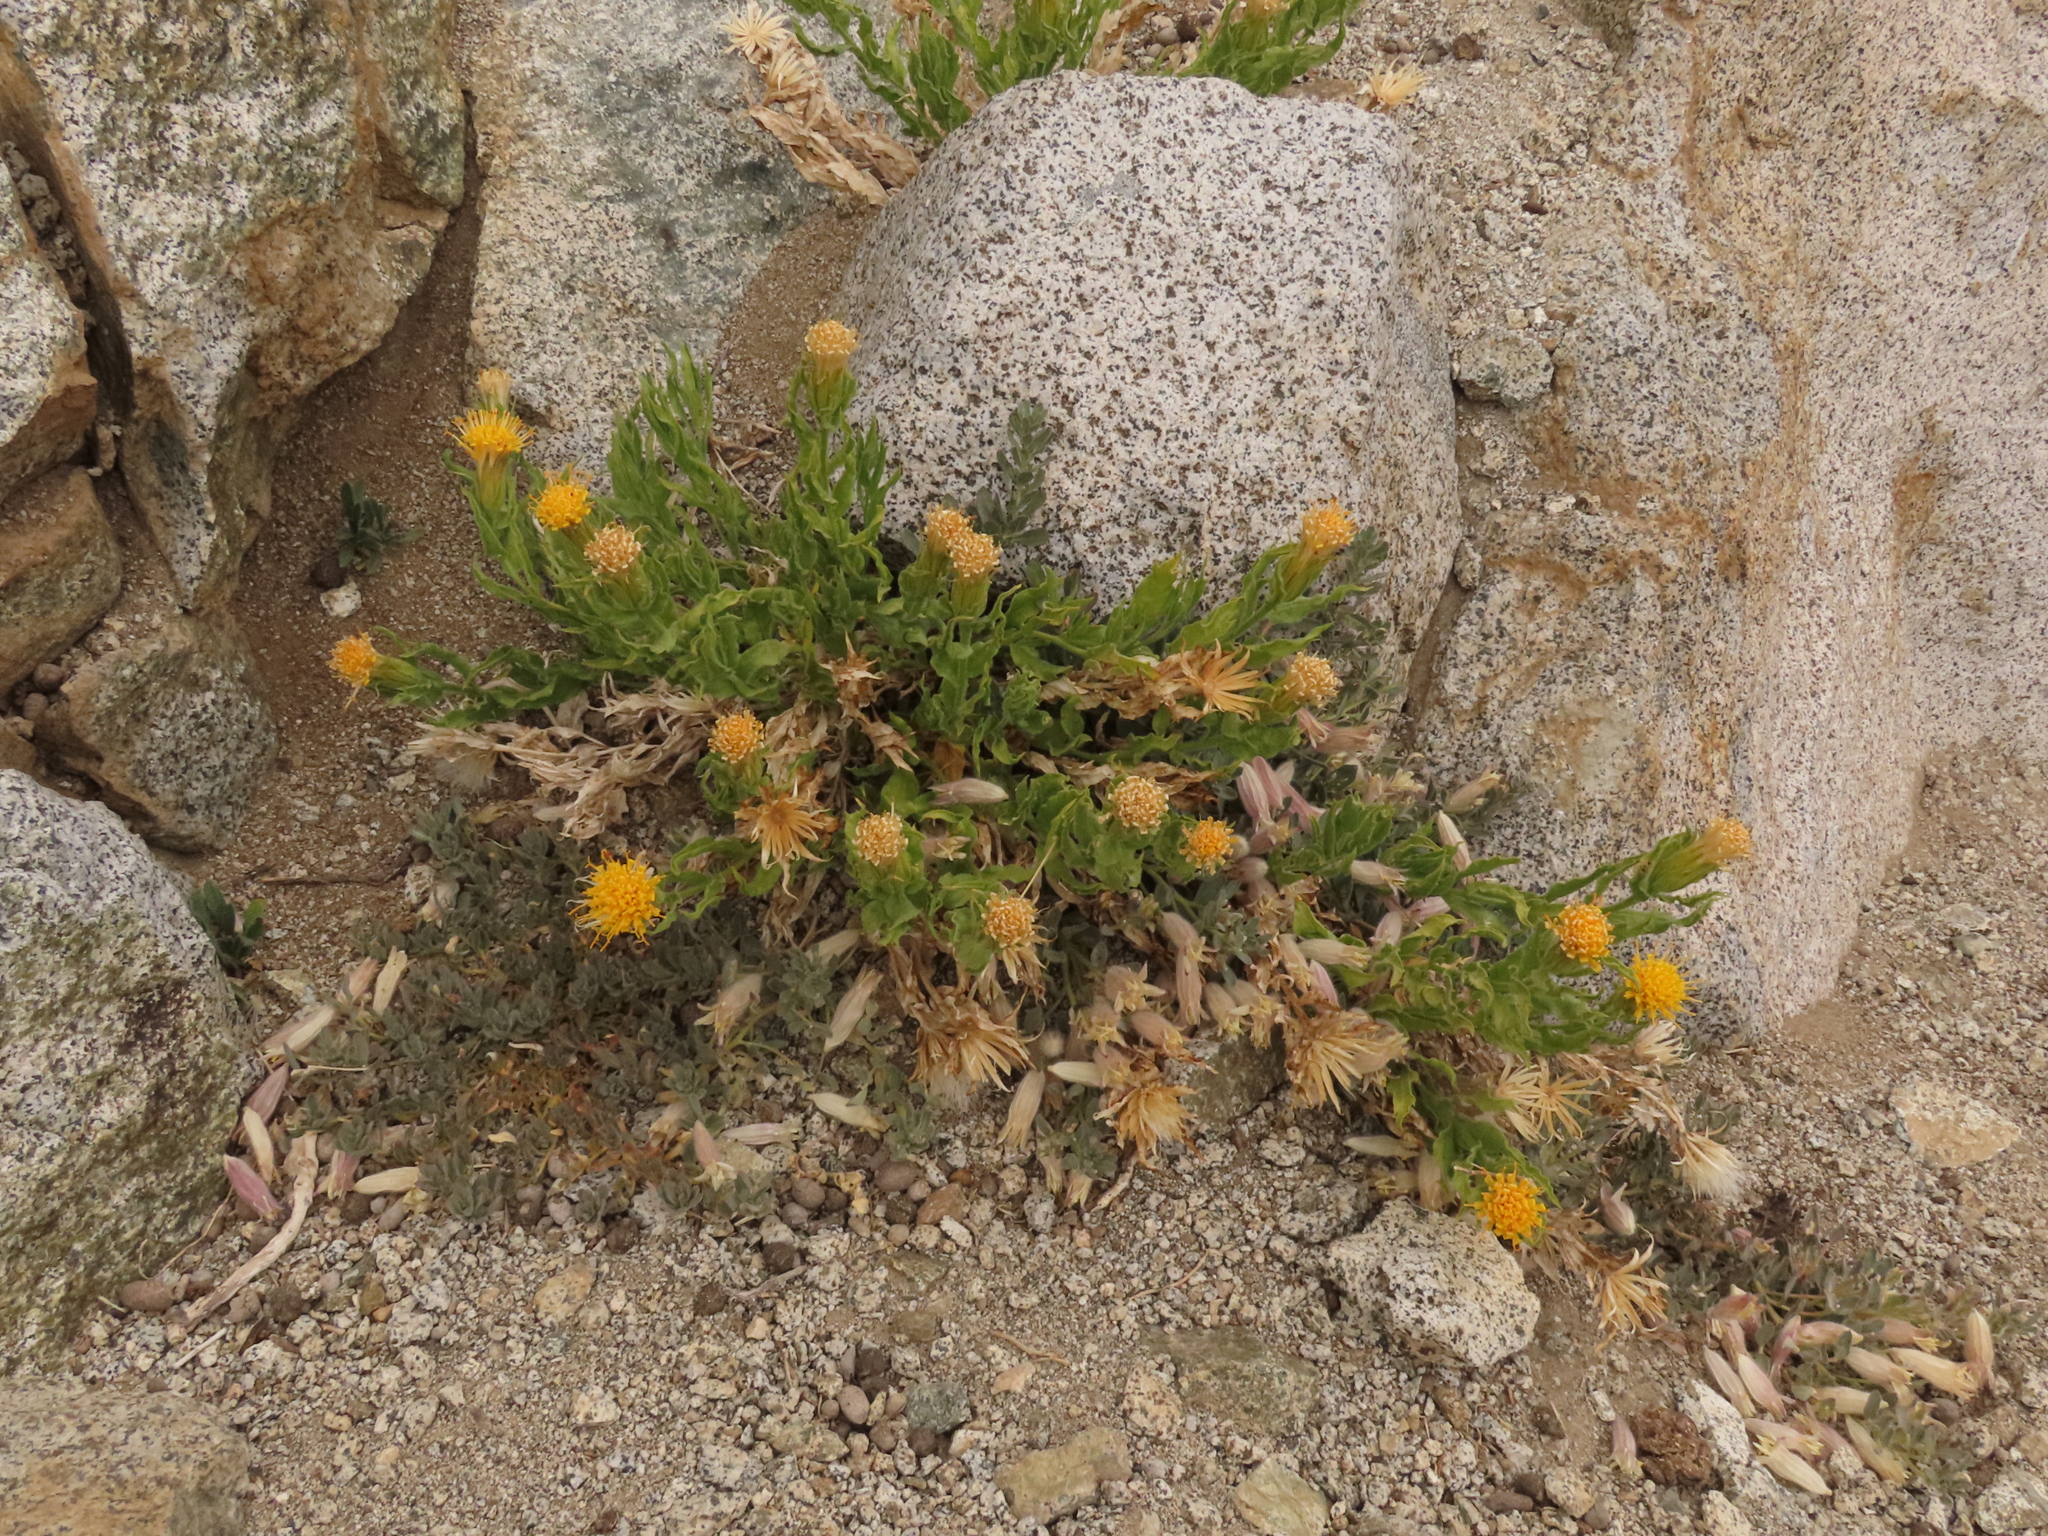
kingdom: Plantae
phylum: Tracheophyta
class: Magnoliopsida
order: Asterales
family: Asteraceae
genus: Leunisia
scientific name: Leunisia laeta
